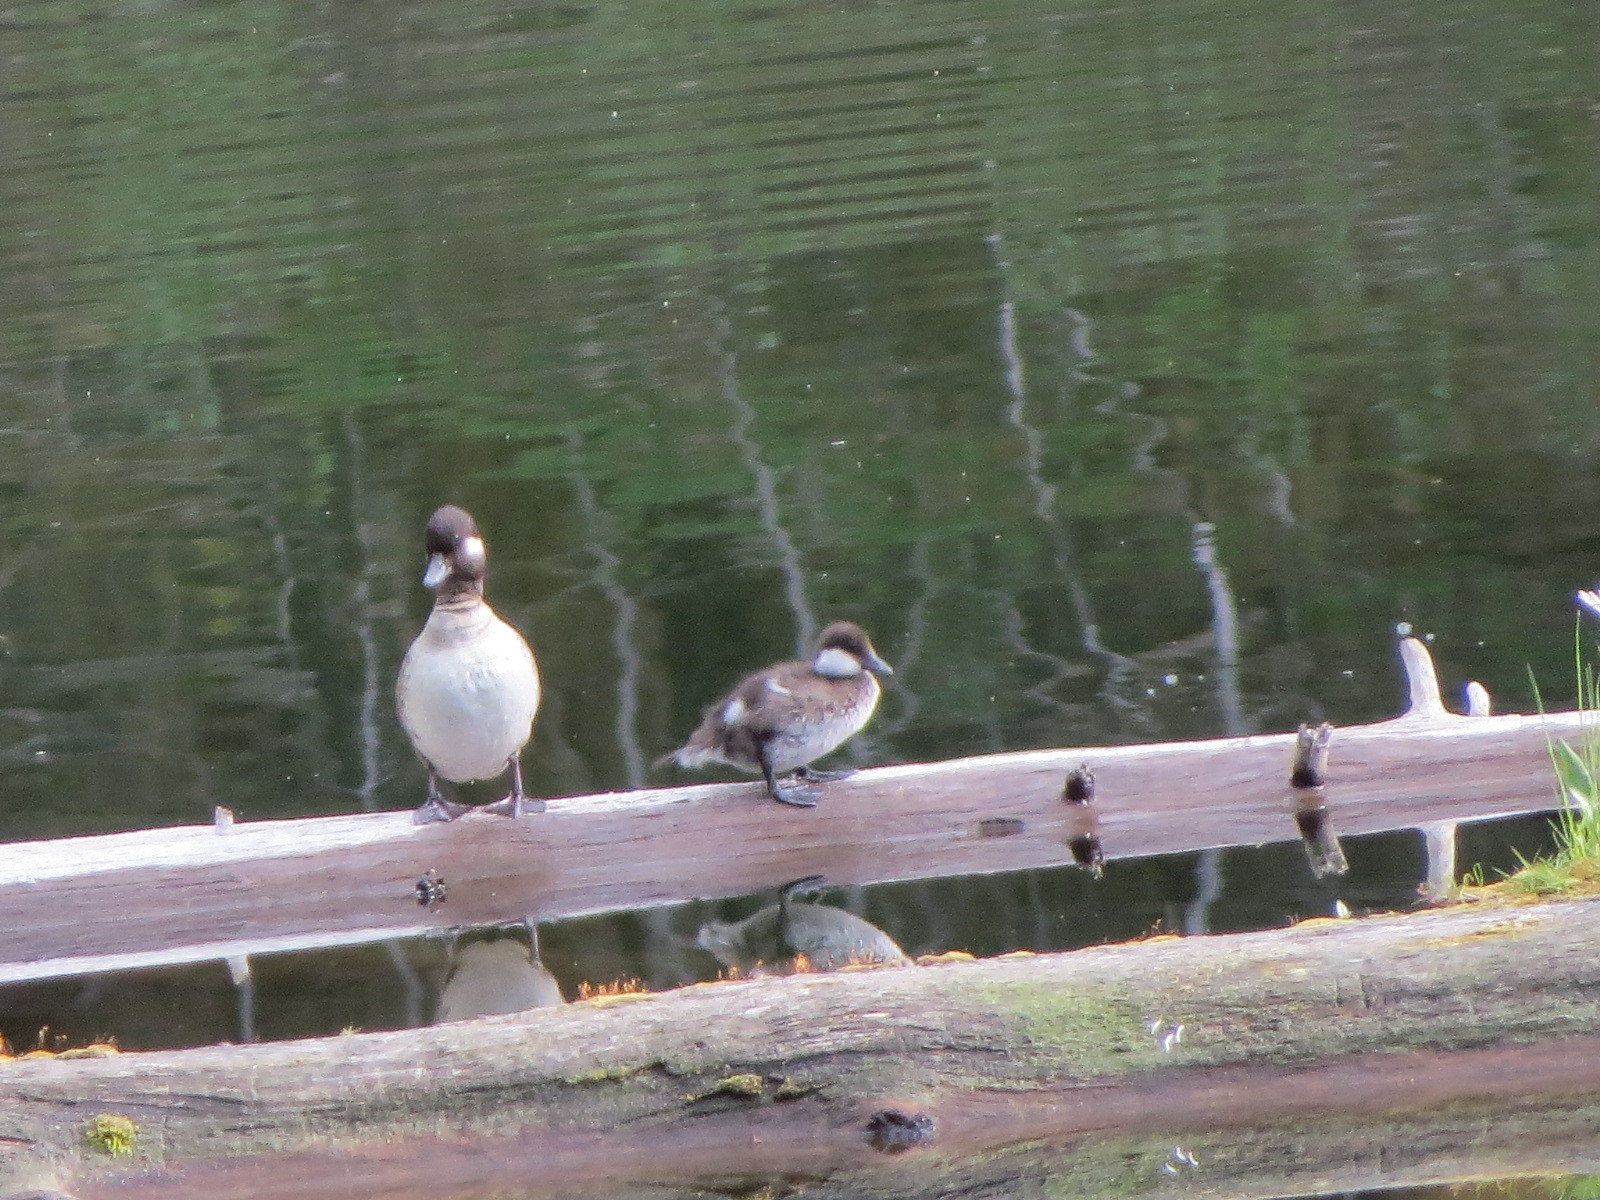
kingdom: Animalia
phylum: Chordata
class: Aves
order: Anseriformes
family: Anatidae
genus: Bucephala
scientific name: Bucephala albeola
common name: Bufflehead
